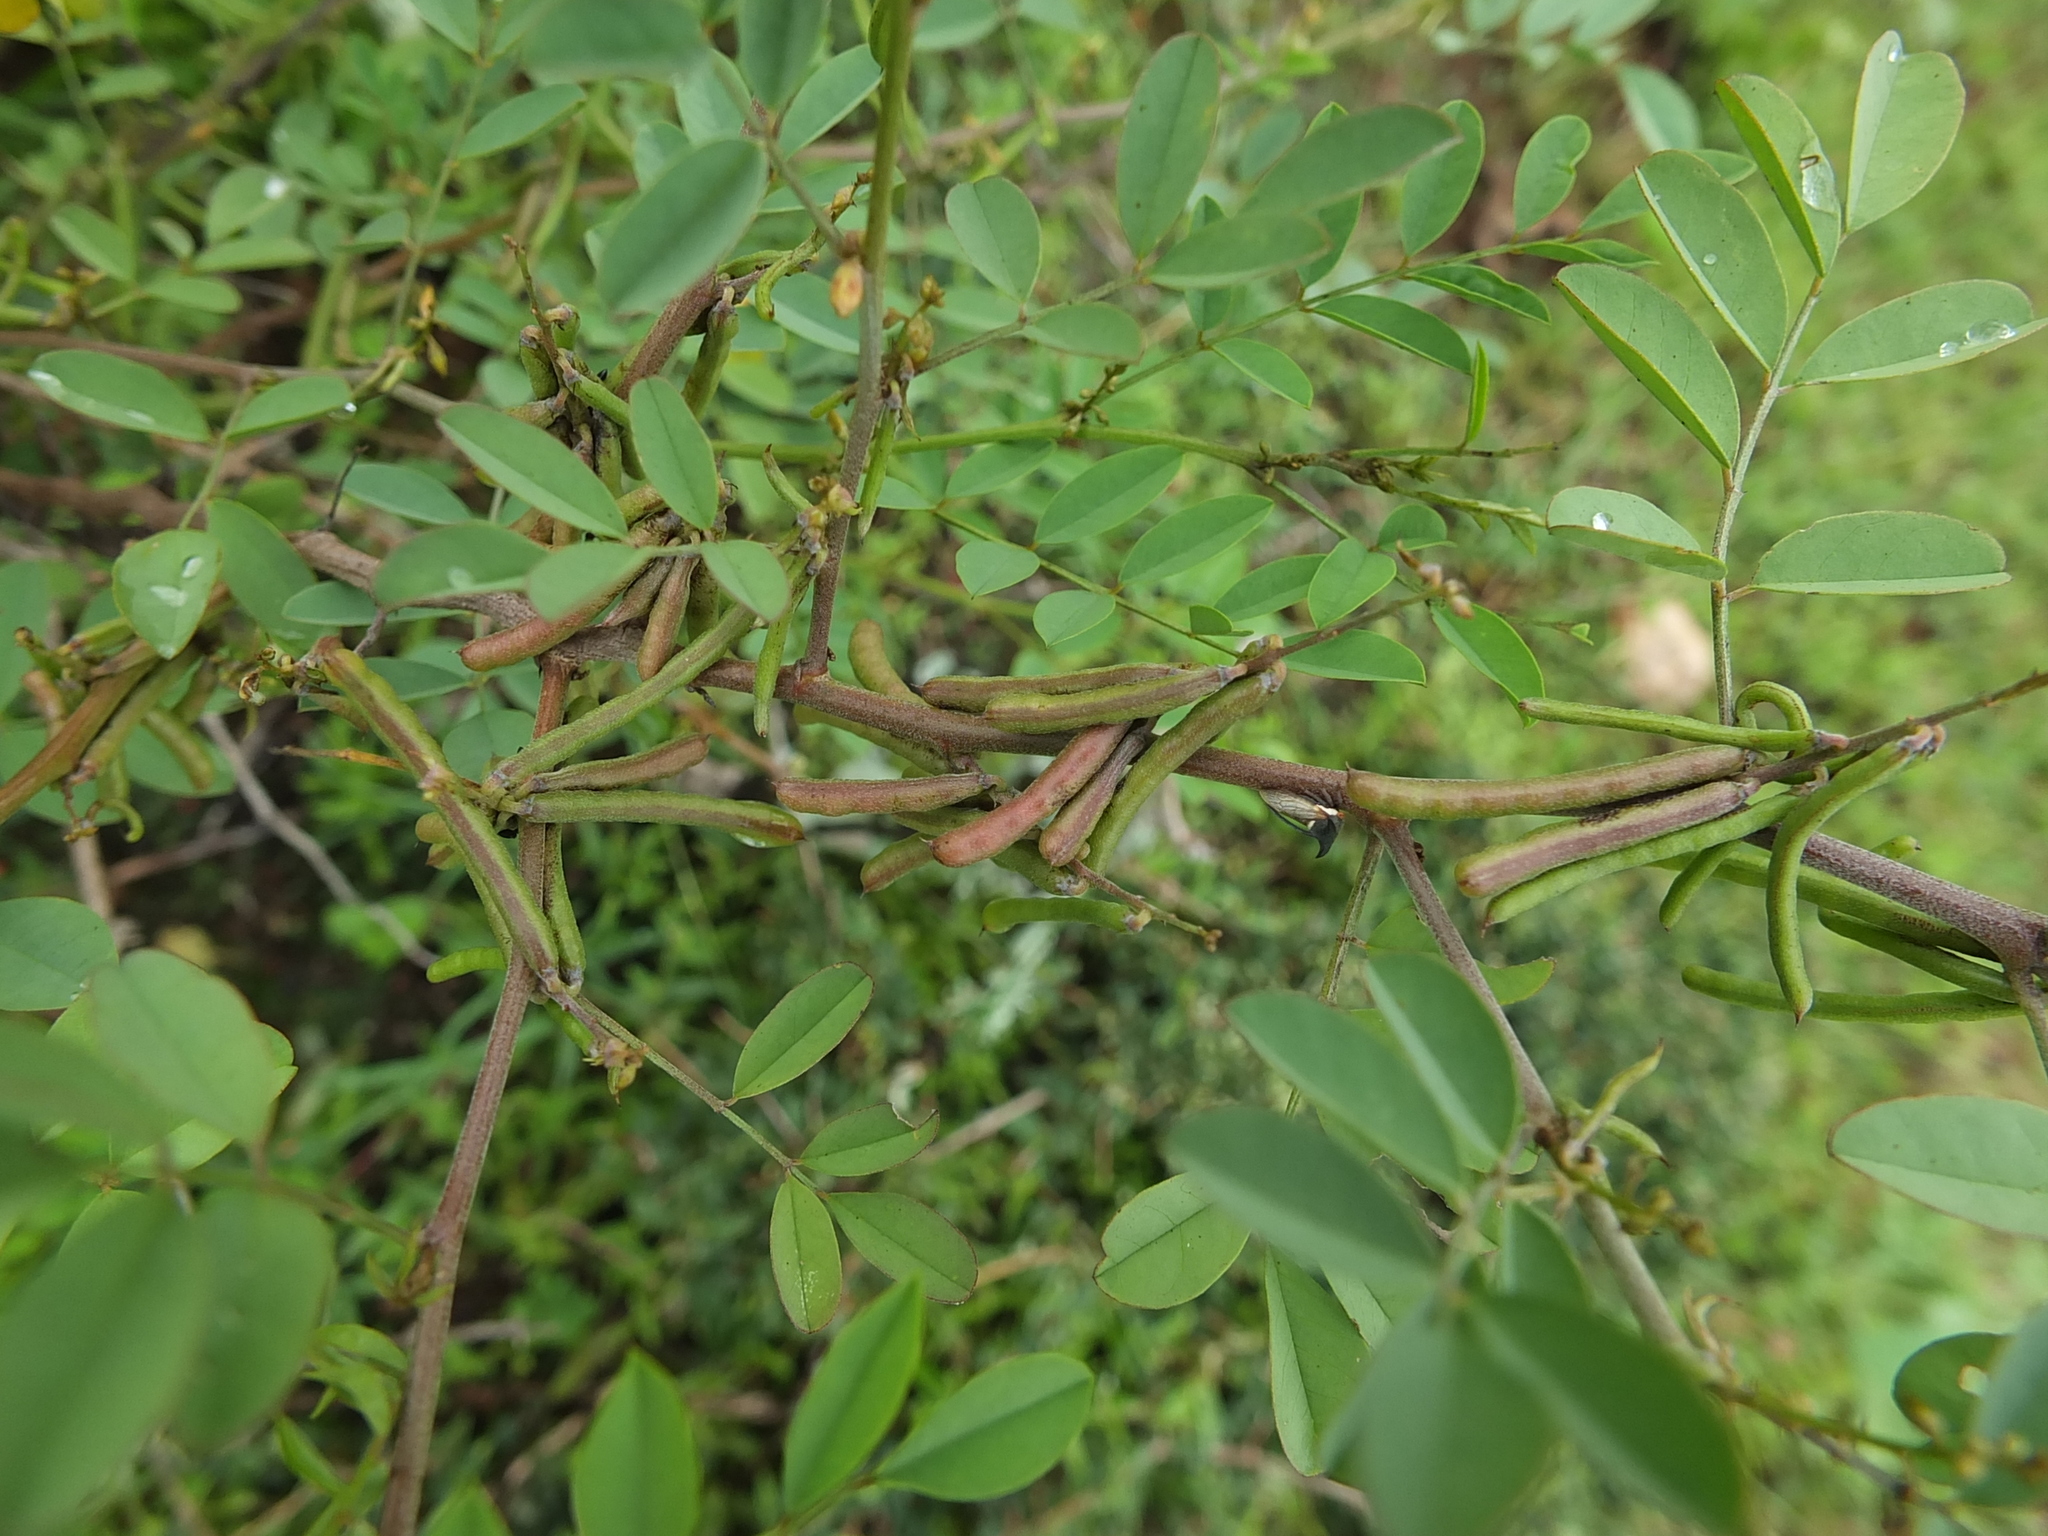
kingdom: Plantae
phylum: Tracheophyta
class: Magnoliopsida
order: Fabales
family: Fabaceae
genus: Indigofera
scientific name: Indigofera tinctoria
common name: True indigo
